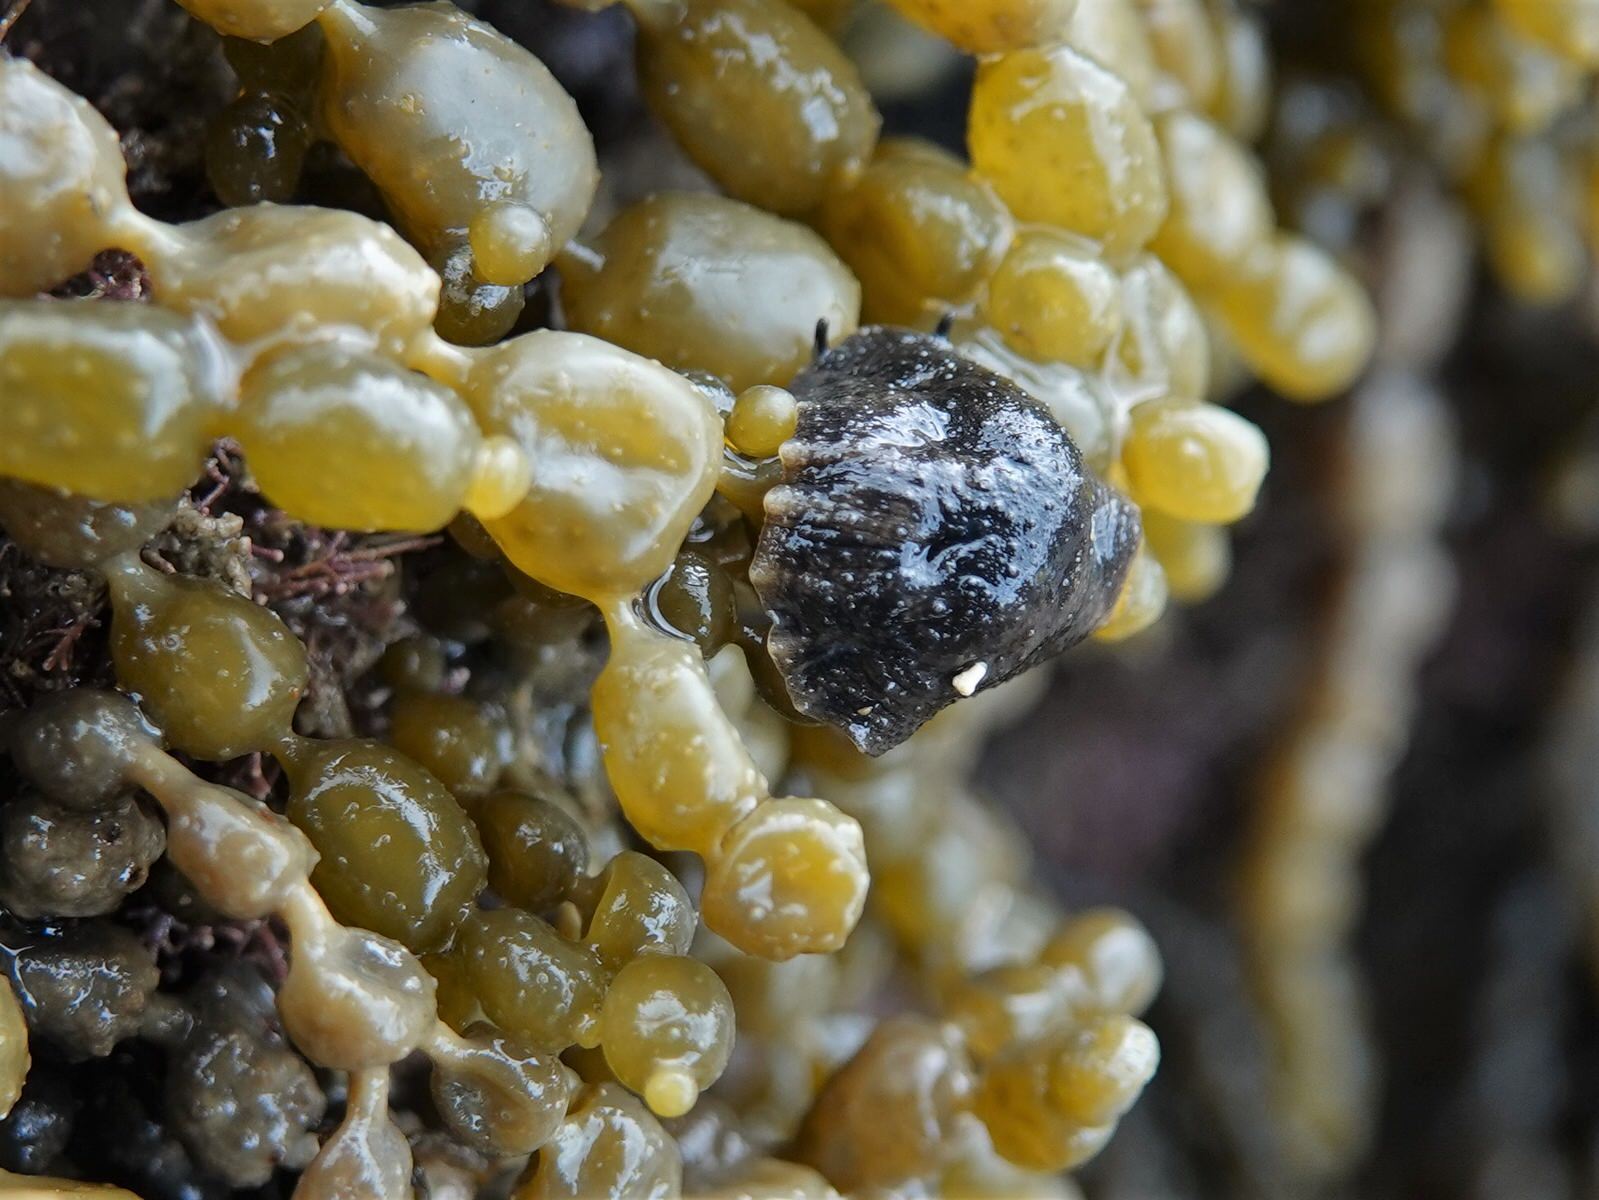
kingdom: Animalia
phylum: Mollusca
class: Gastropoda
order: Systellommatophora
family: Onchidiidae
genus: Onchidella
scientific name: Onchidella nigricans
